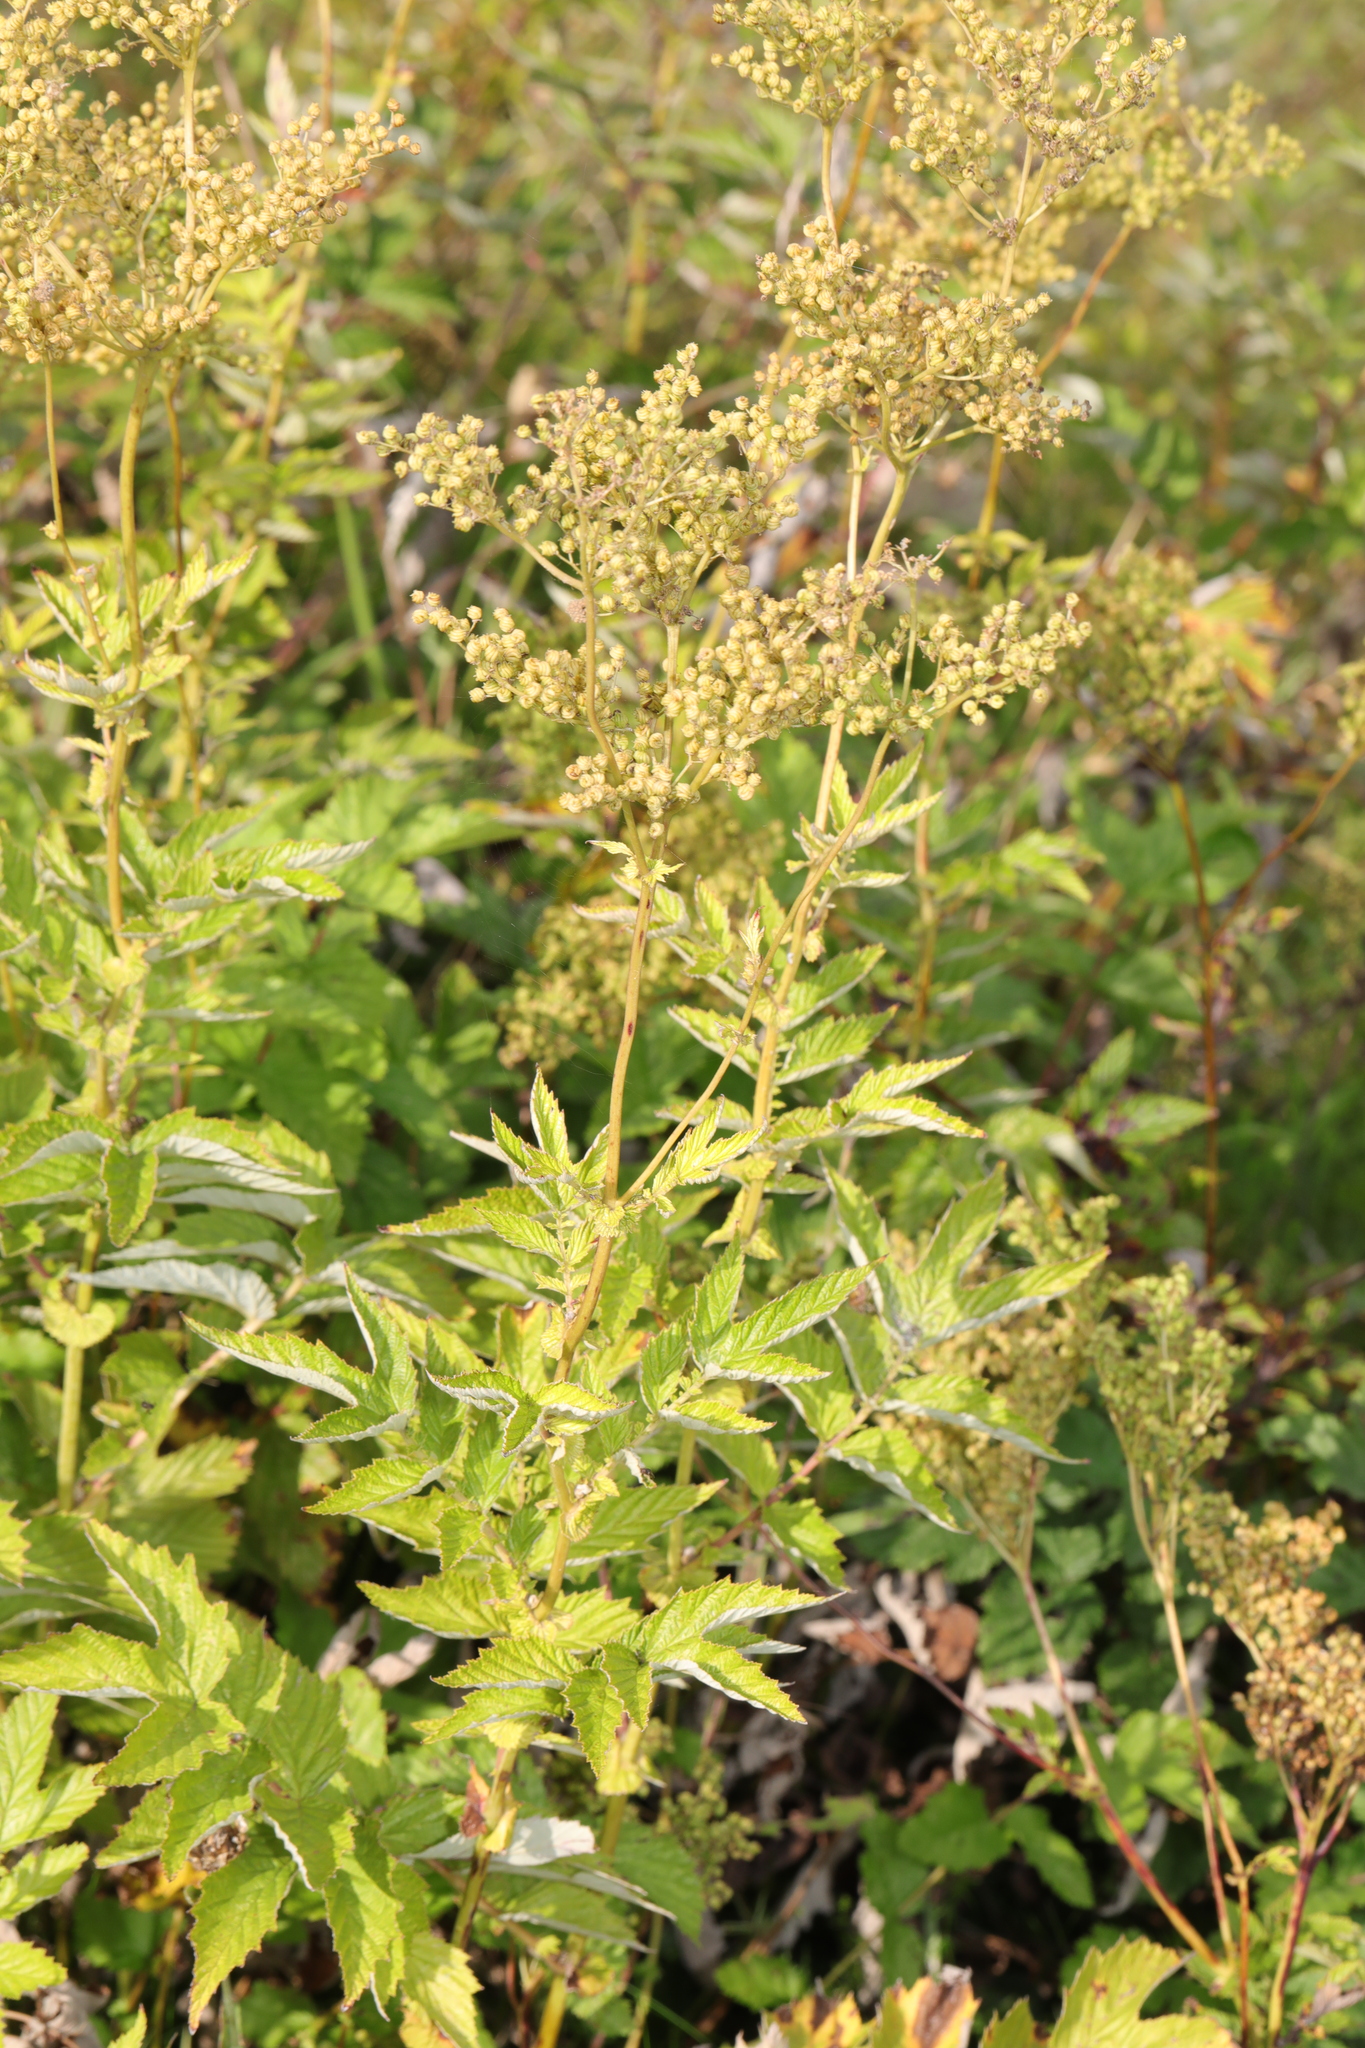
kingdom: Plantae
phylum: Tracheophyta
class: Magnoliopsida
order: Rosales
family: Rosaceae
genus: Filipendula
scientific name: Filipendula ulmaria
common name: Meadowsweet
